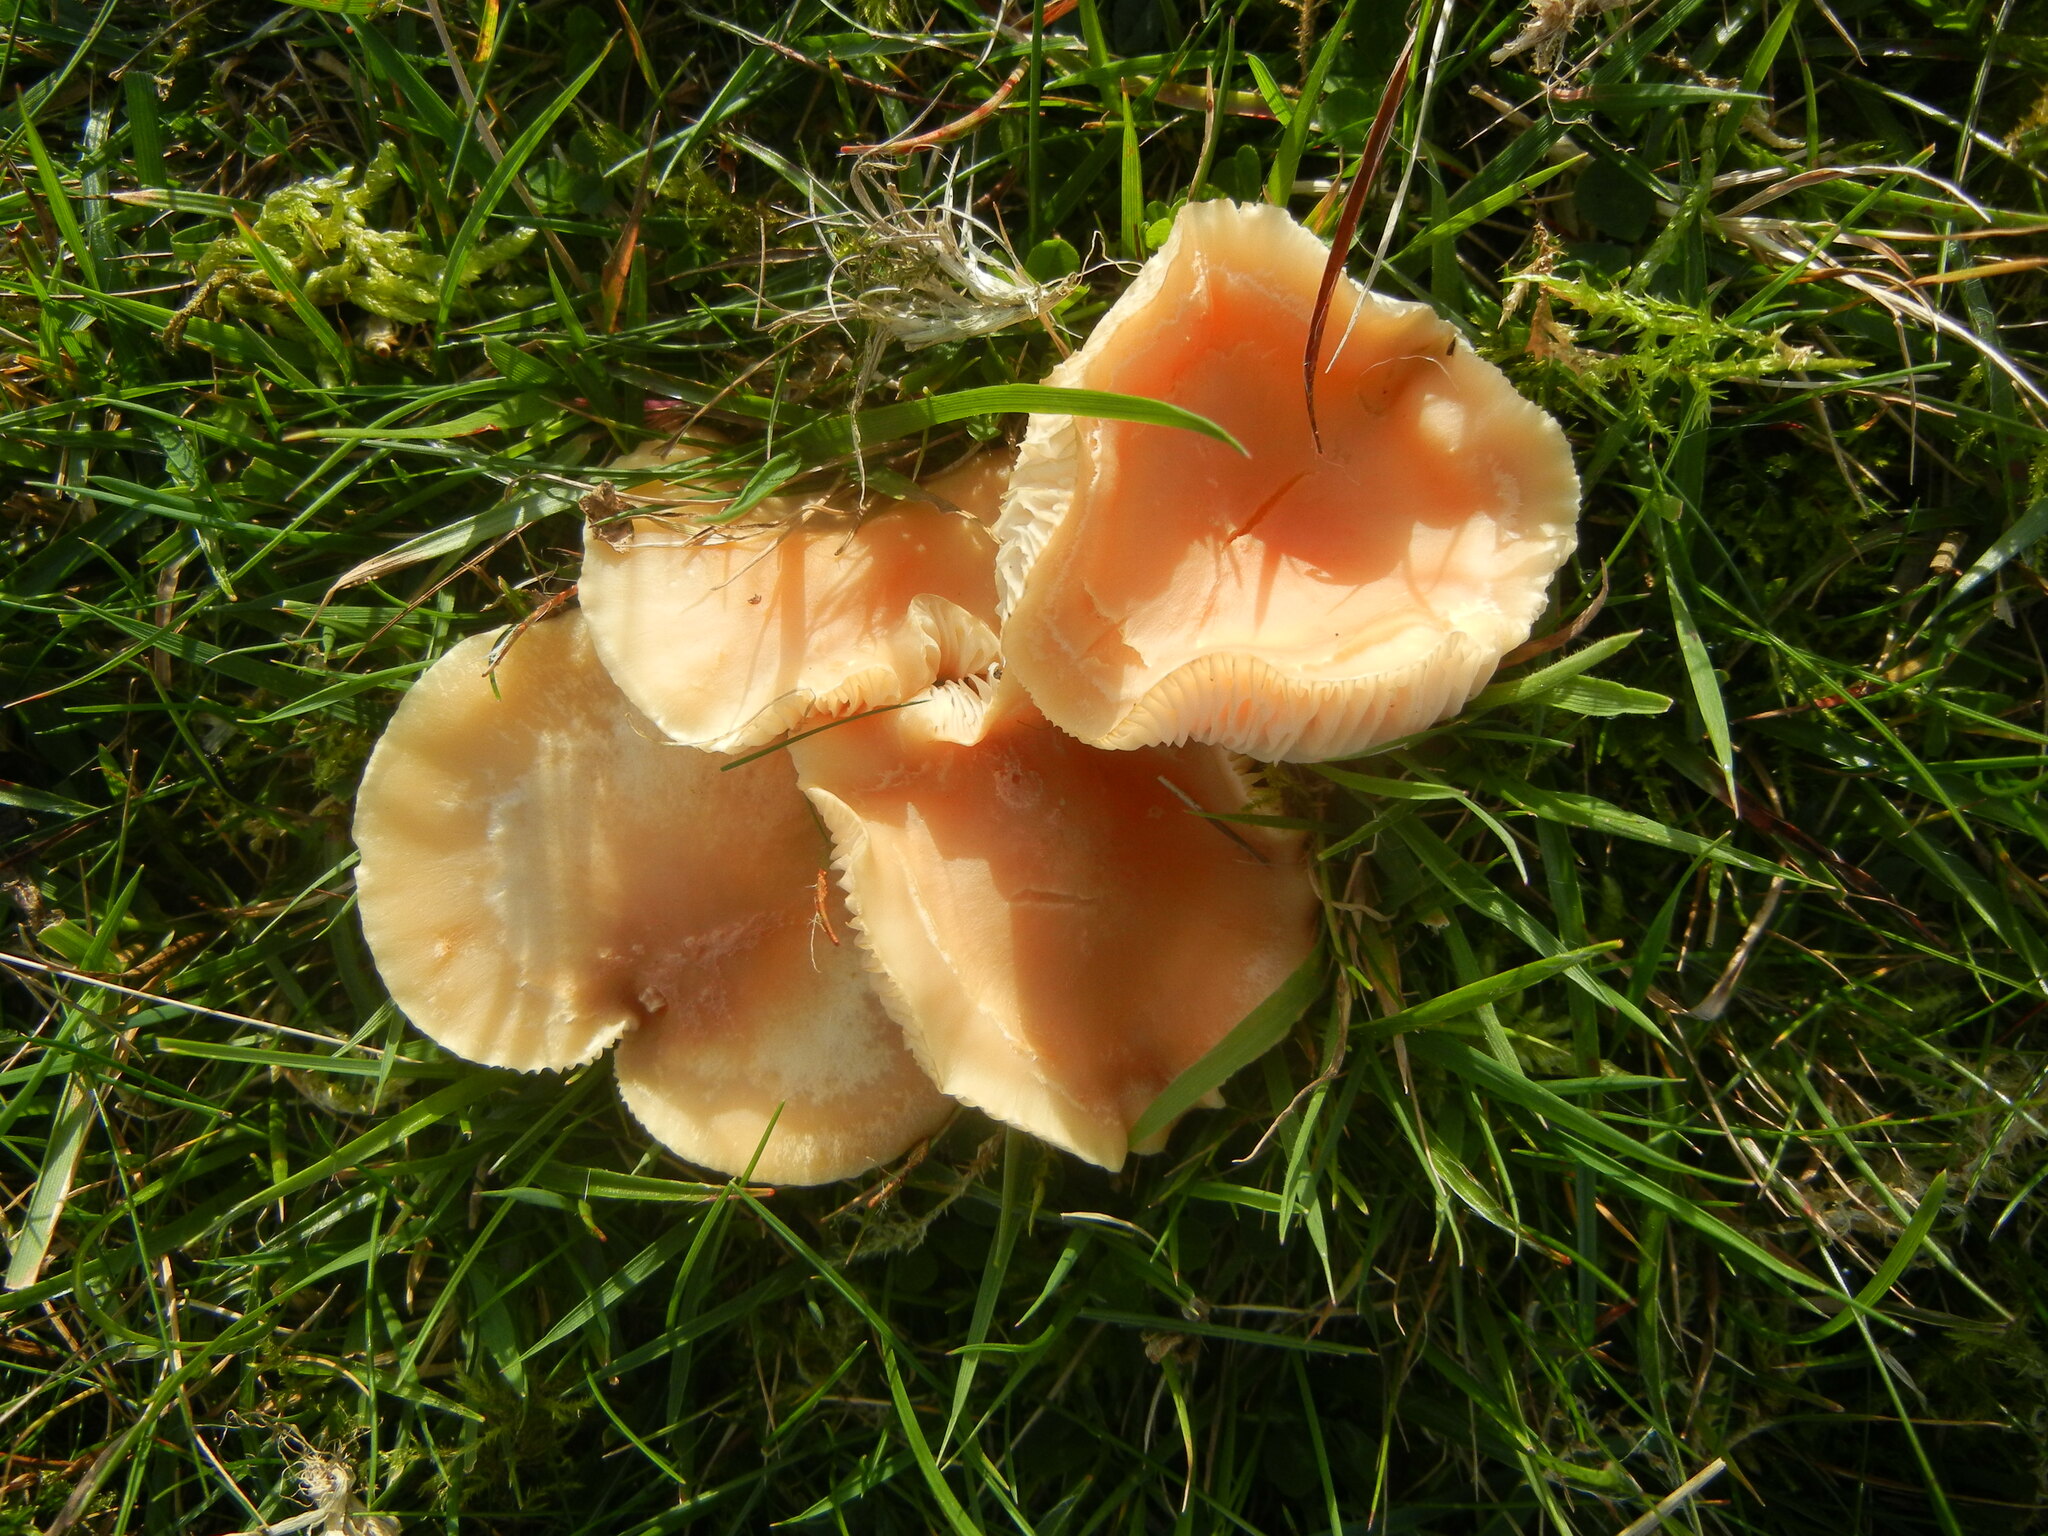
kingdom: Fungi
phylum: Basidiomycota
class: Agaricomycetes
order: Agaricales
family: Hygrophoraceae
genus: Cuphophyllus
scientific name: Cuphophyllus pratensis
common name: Meadow waxcap
